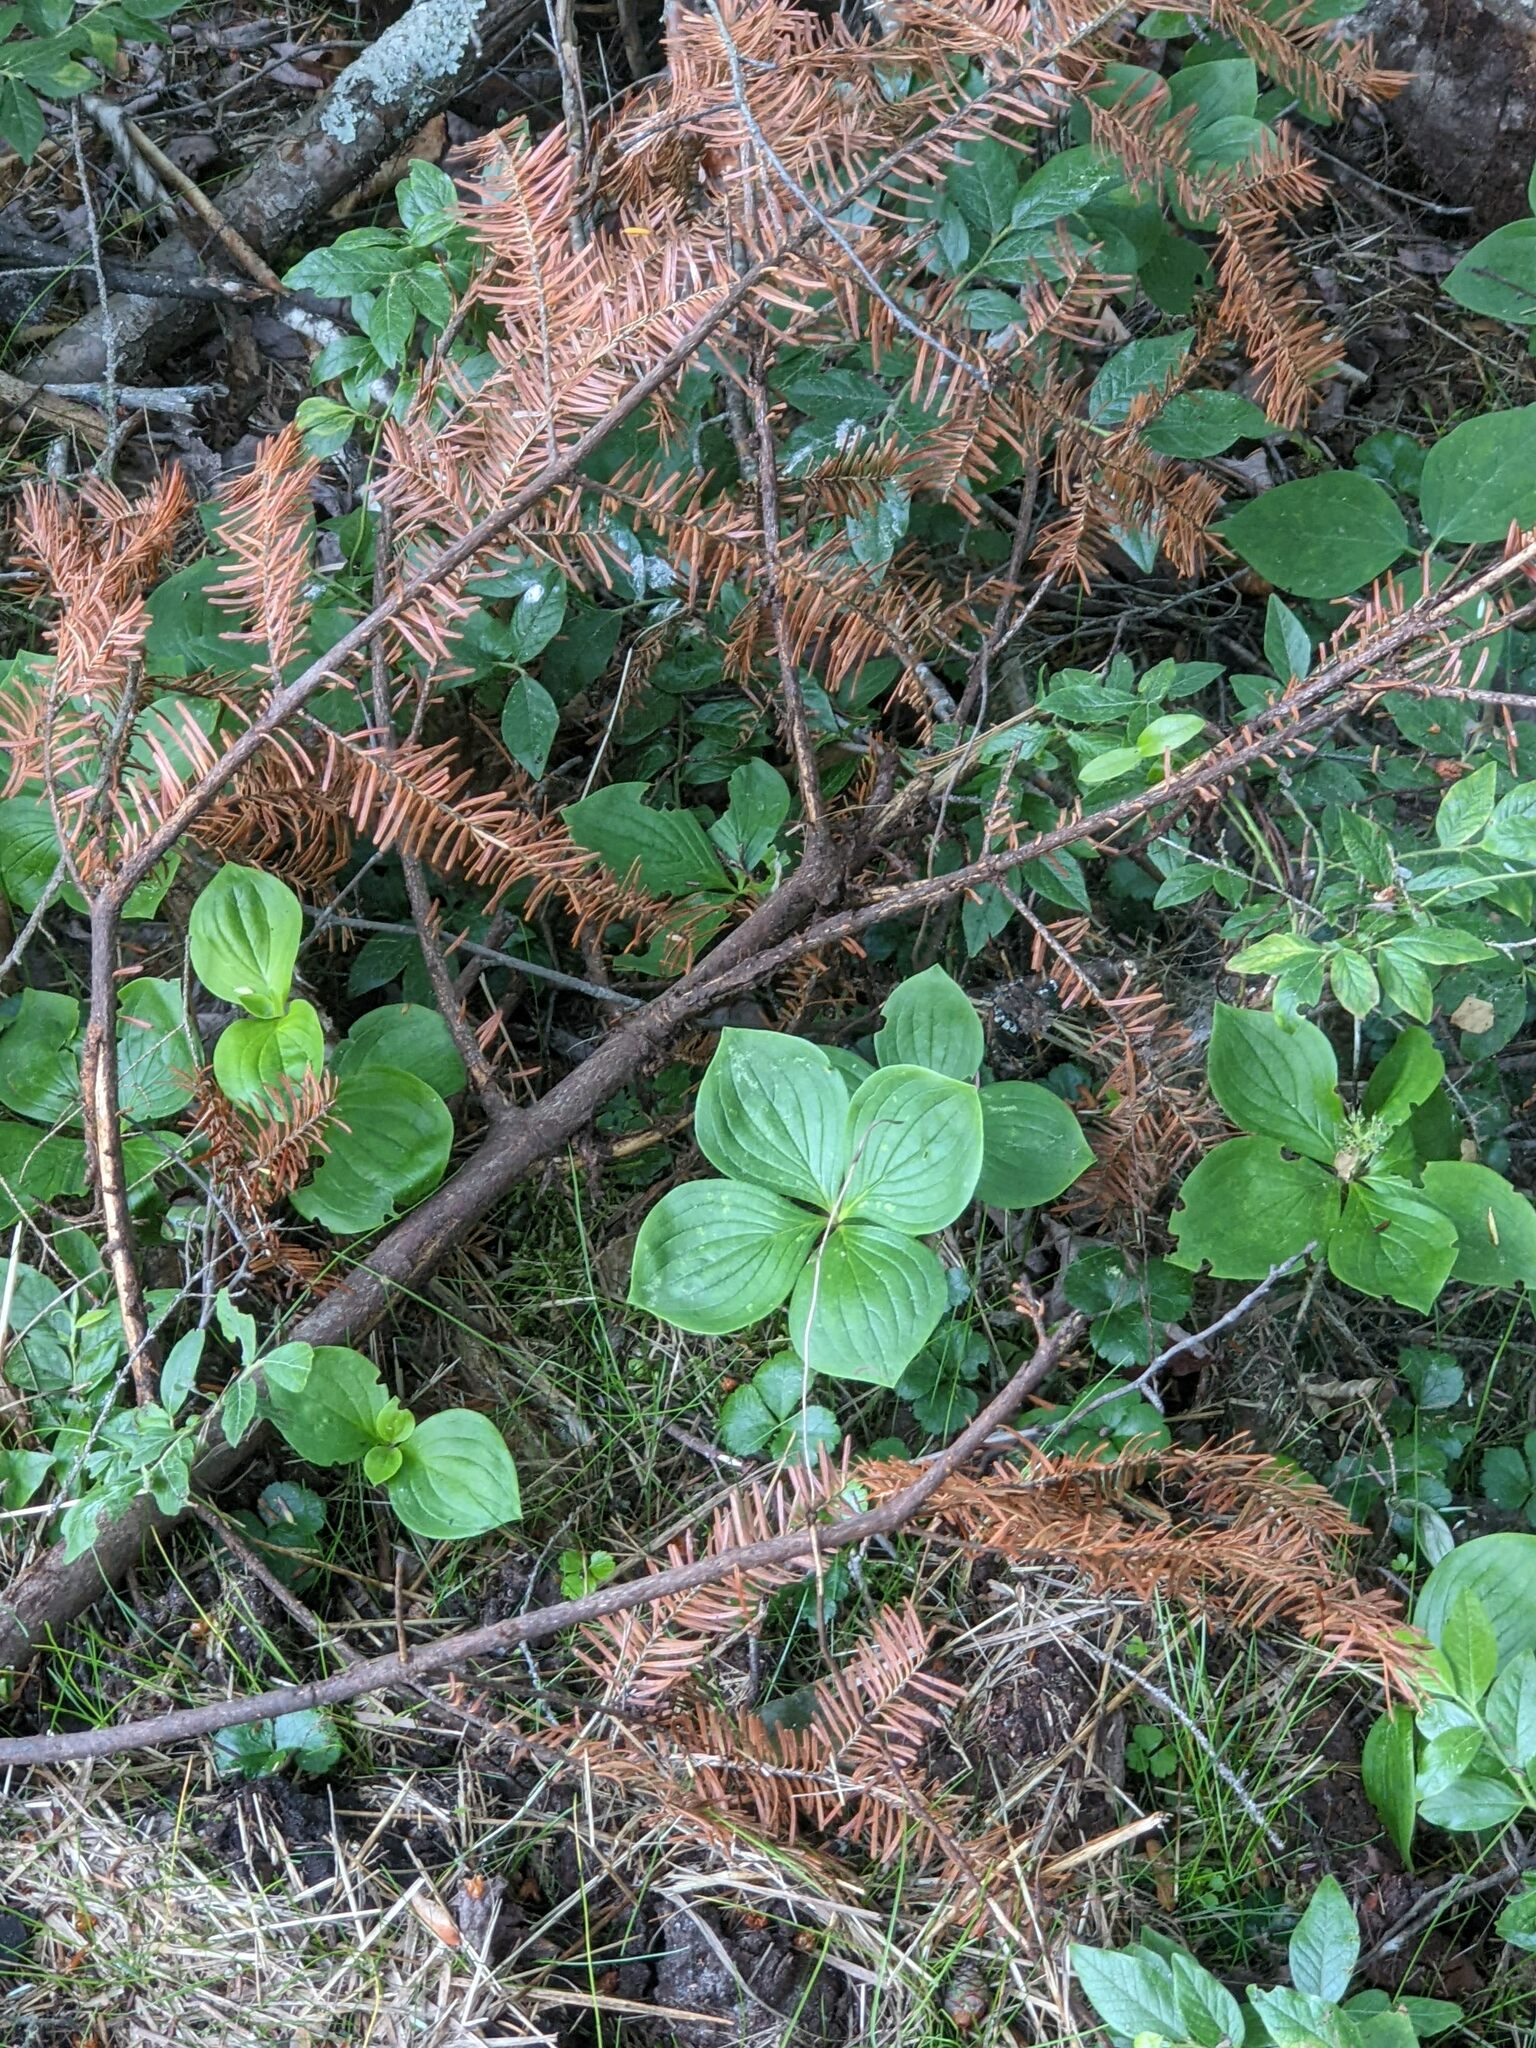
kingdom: Plantae
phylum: Tracheophyta
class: Magnoliopsida
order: Cornales
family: Cornaceae
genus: Cornus
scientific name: Cornus canadensis
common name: Creeping dogwood
